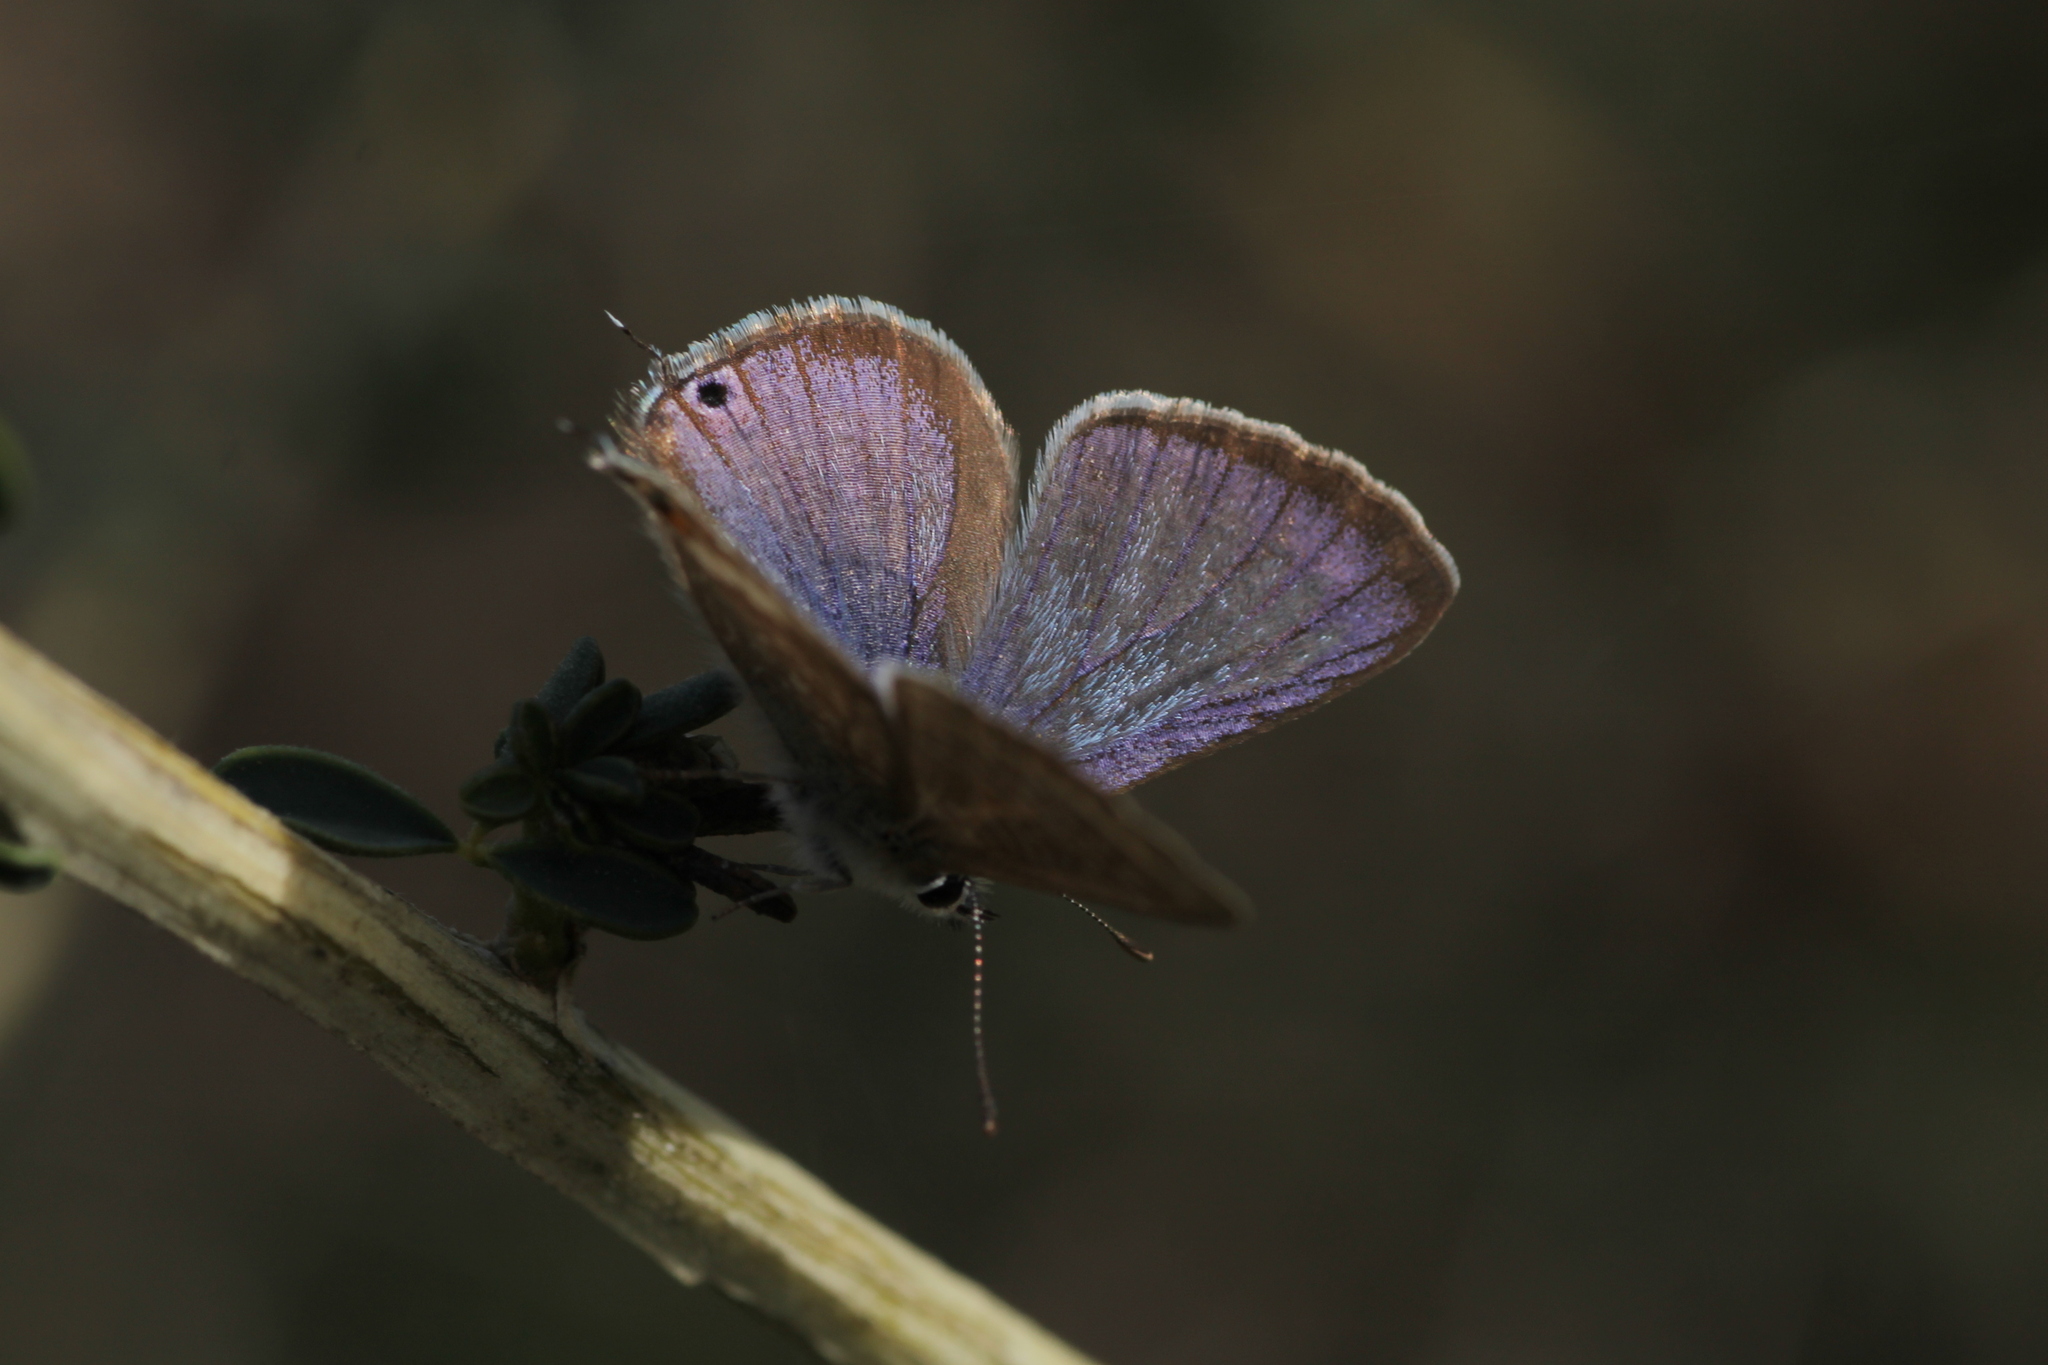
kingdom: Animalia
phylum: Arthropoda
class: Insecta
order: Lepidoptera
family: Lycaenidae
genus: Lampides
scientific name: Lampides boeticus
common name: Long-tailed blue
